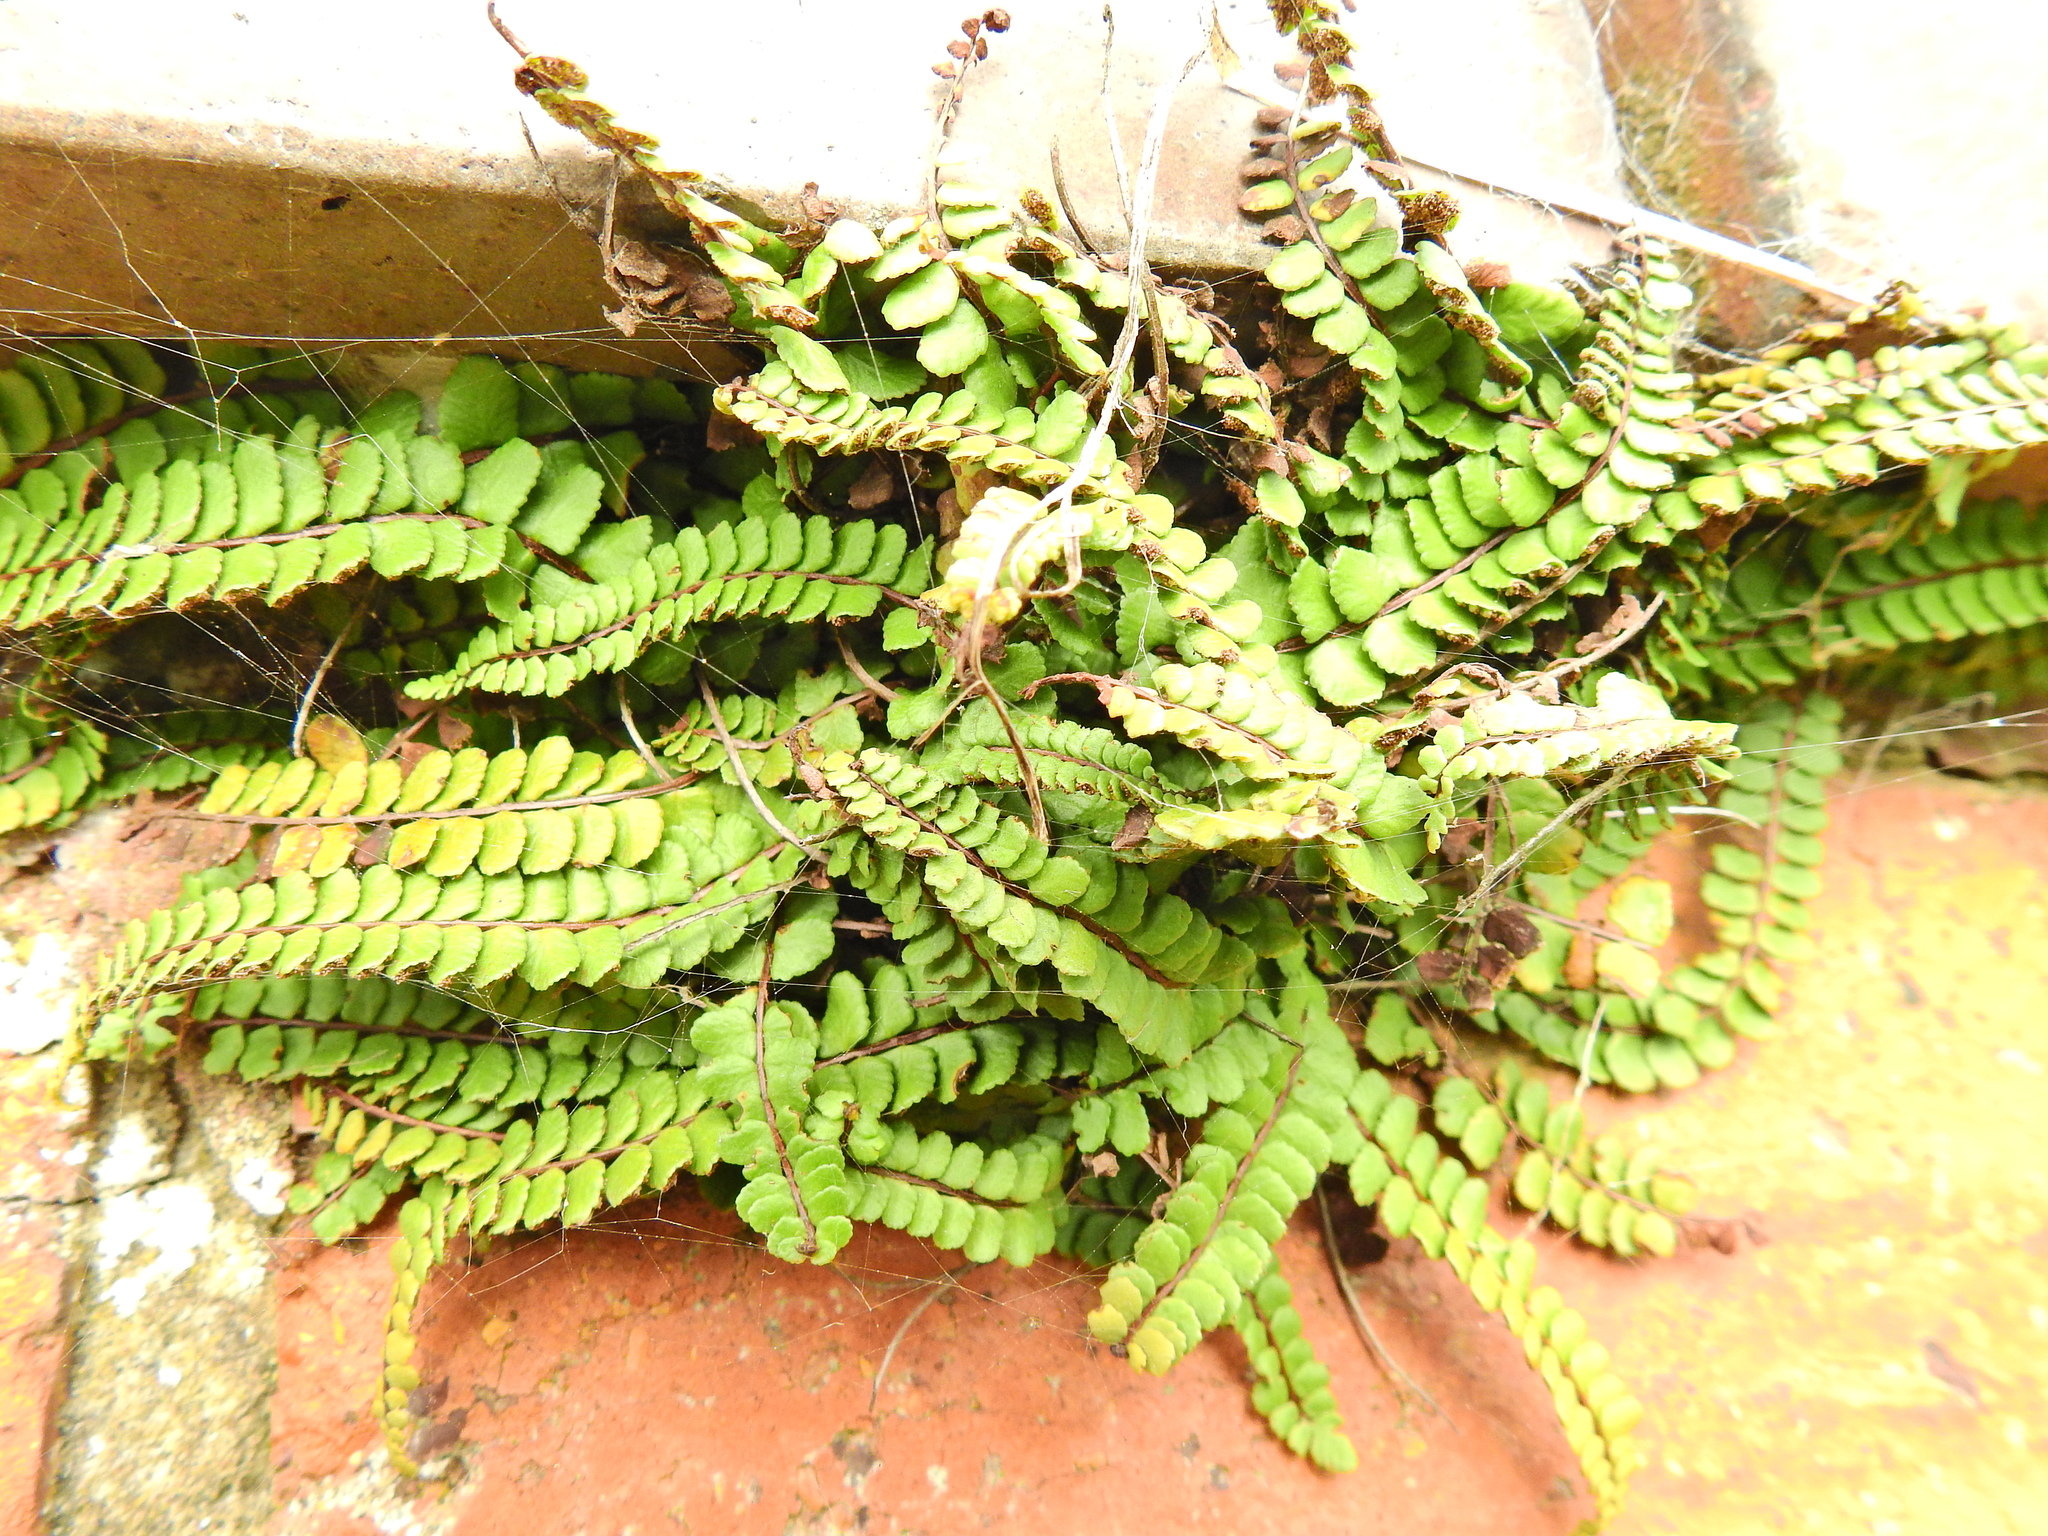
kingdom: Plantae
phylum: Tracheophyta
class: Polypodiopsida
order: Polypodiales
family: Aspleniaceae
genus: Asplenium
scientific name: Asplenium trichomanes
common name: Maidenhair spleenwort
